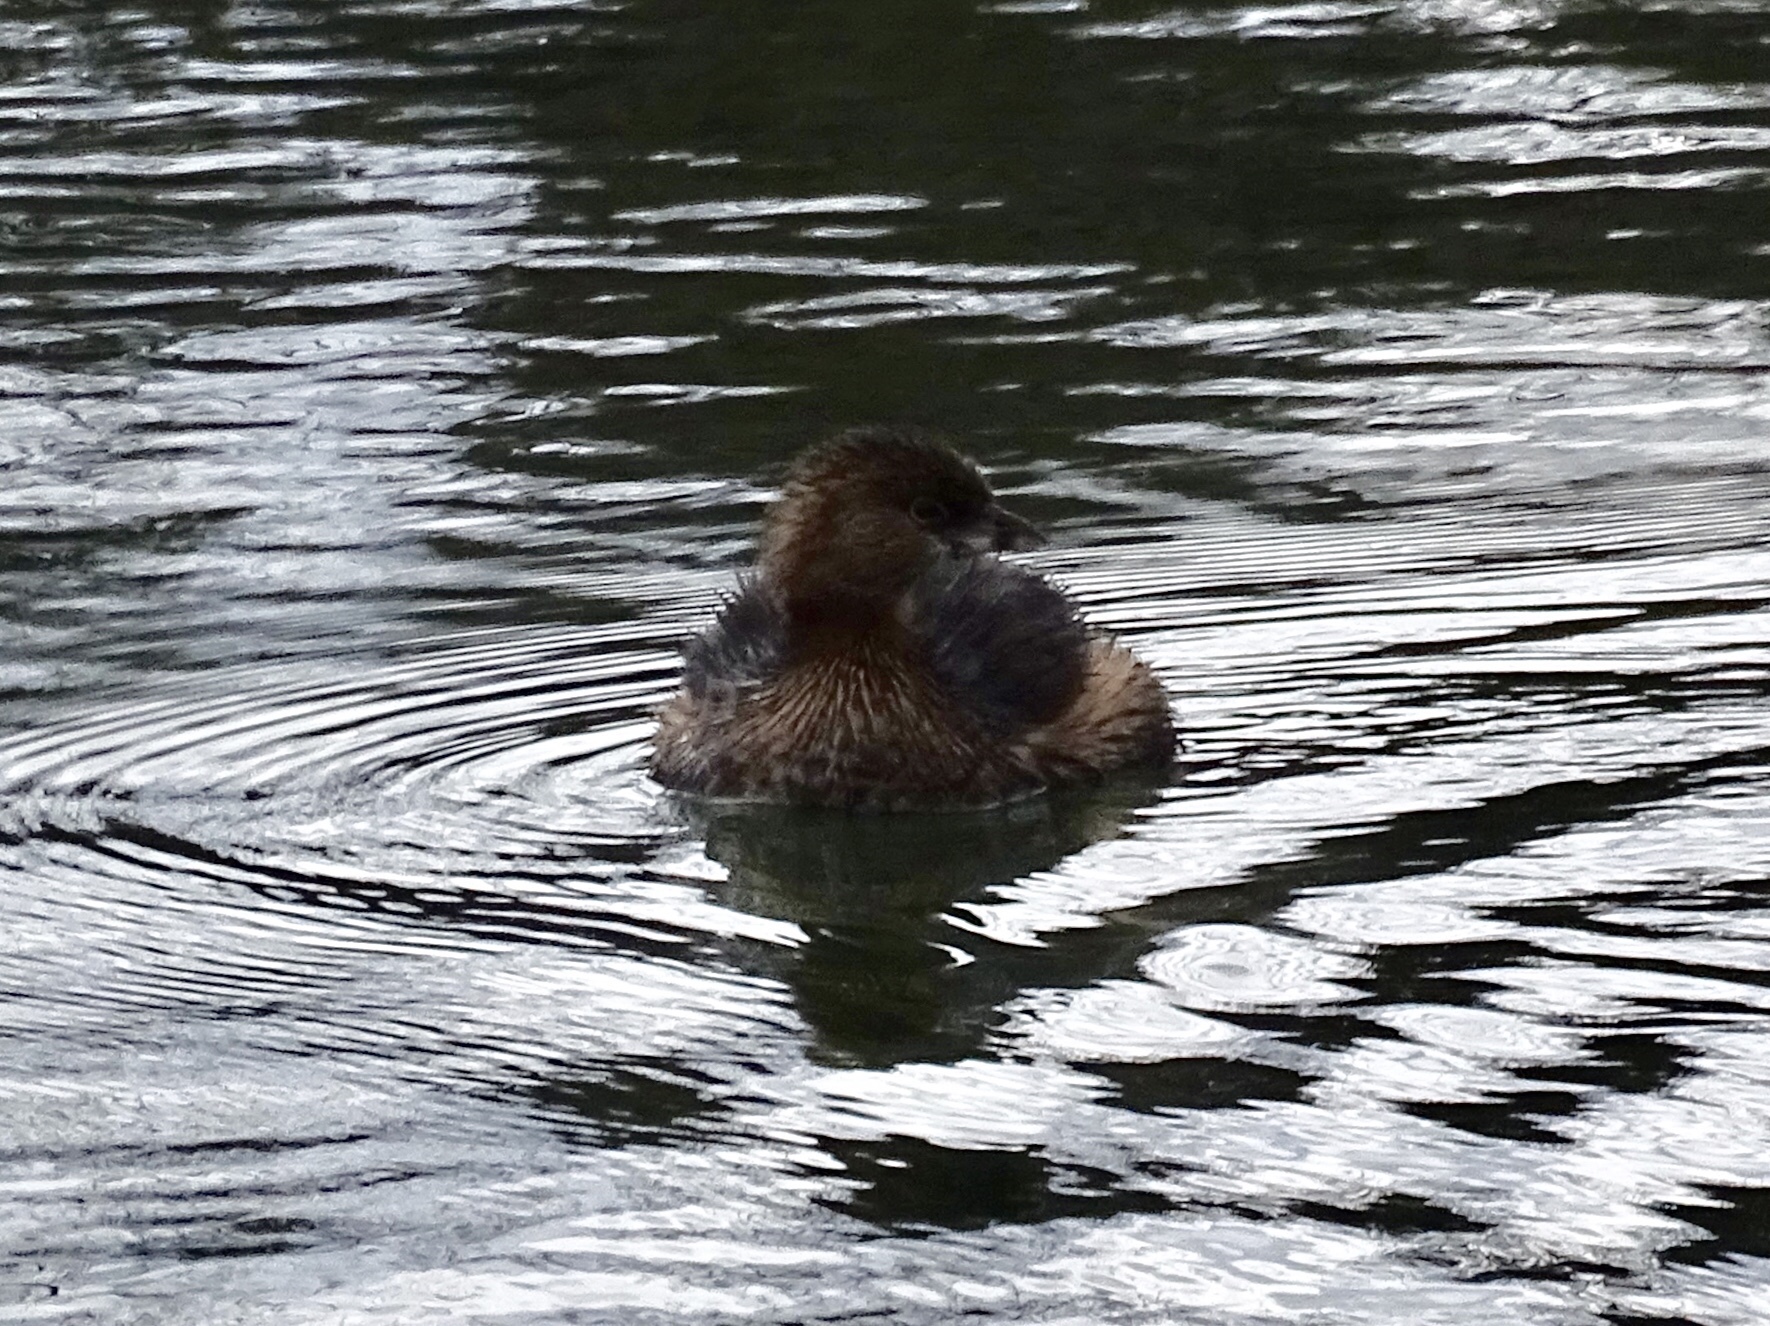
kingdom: Animalia
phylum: Chordata
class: Aves
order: Podicipediformes
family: Podicipedidae
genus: Podilymbus
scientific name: Podilymbus podiceps
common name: Pied-billed grebe
